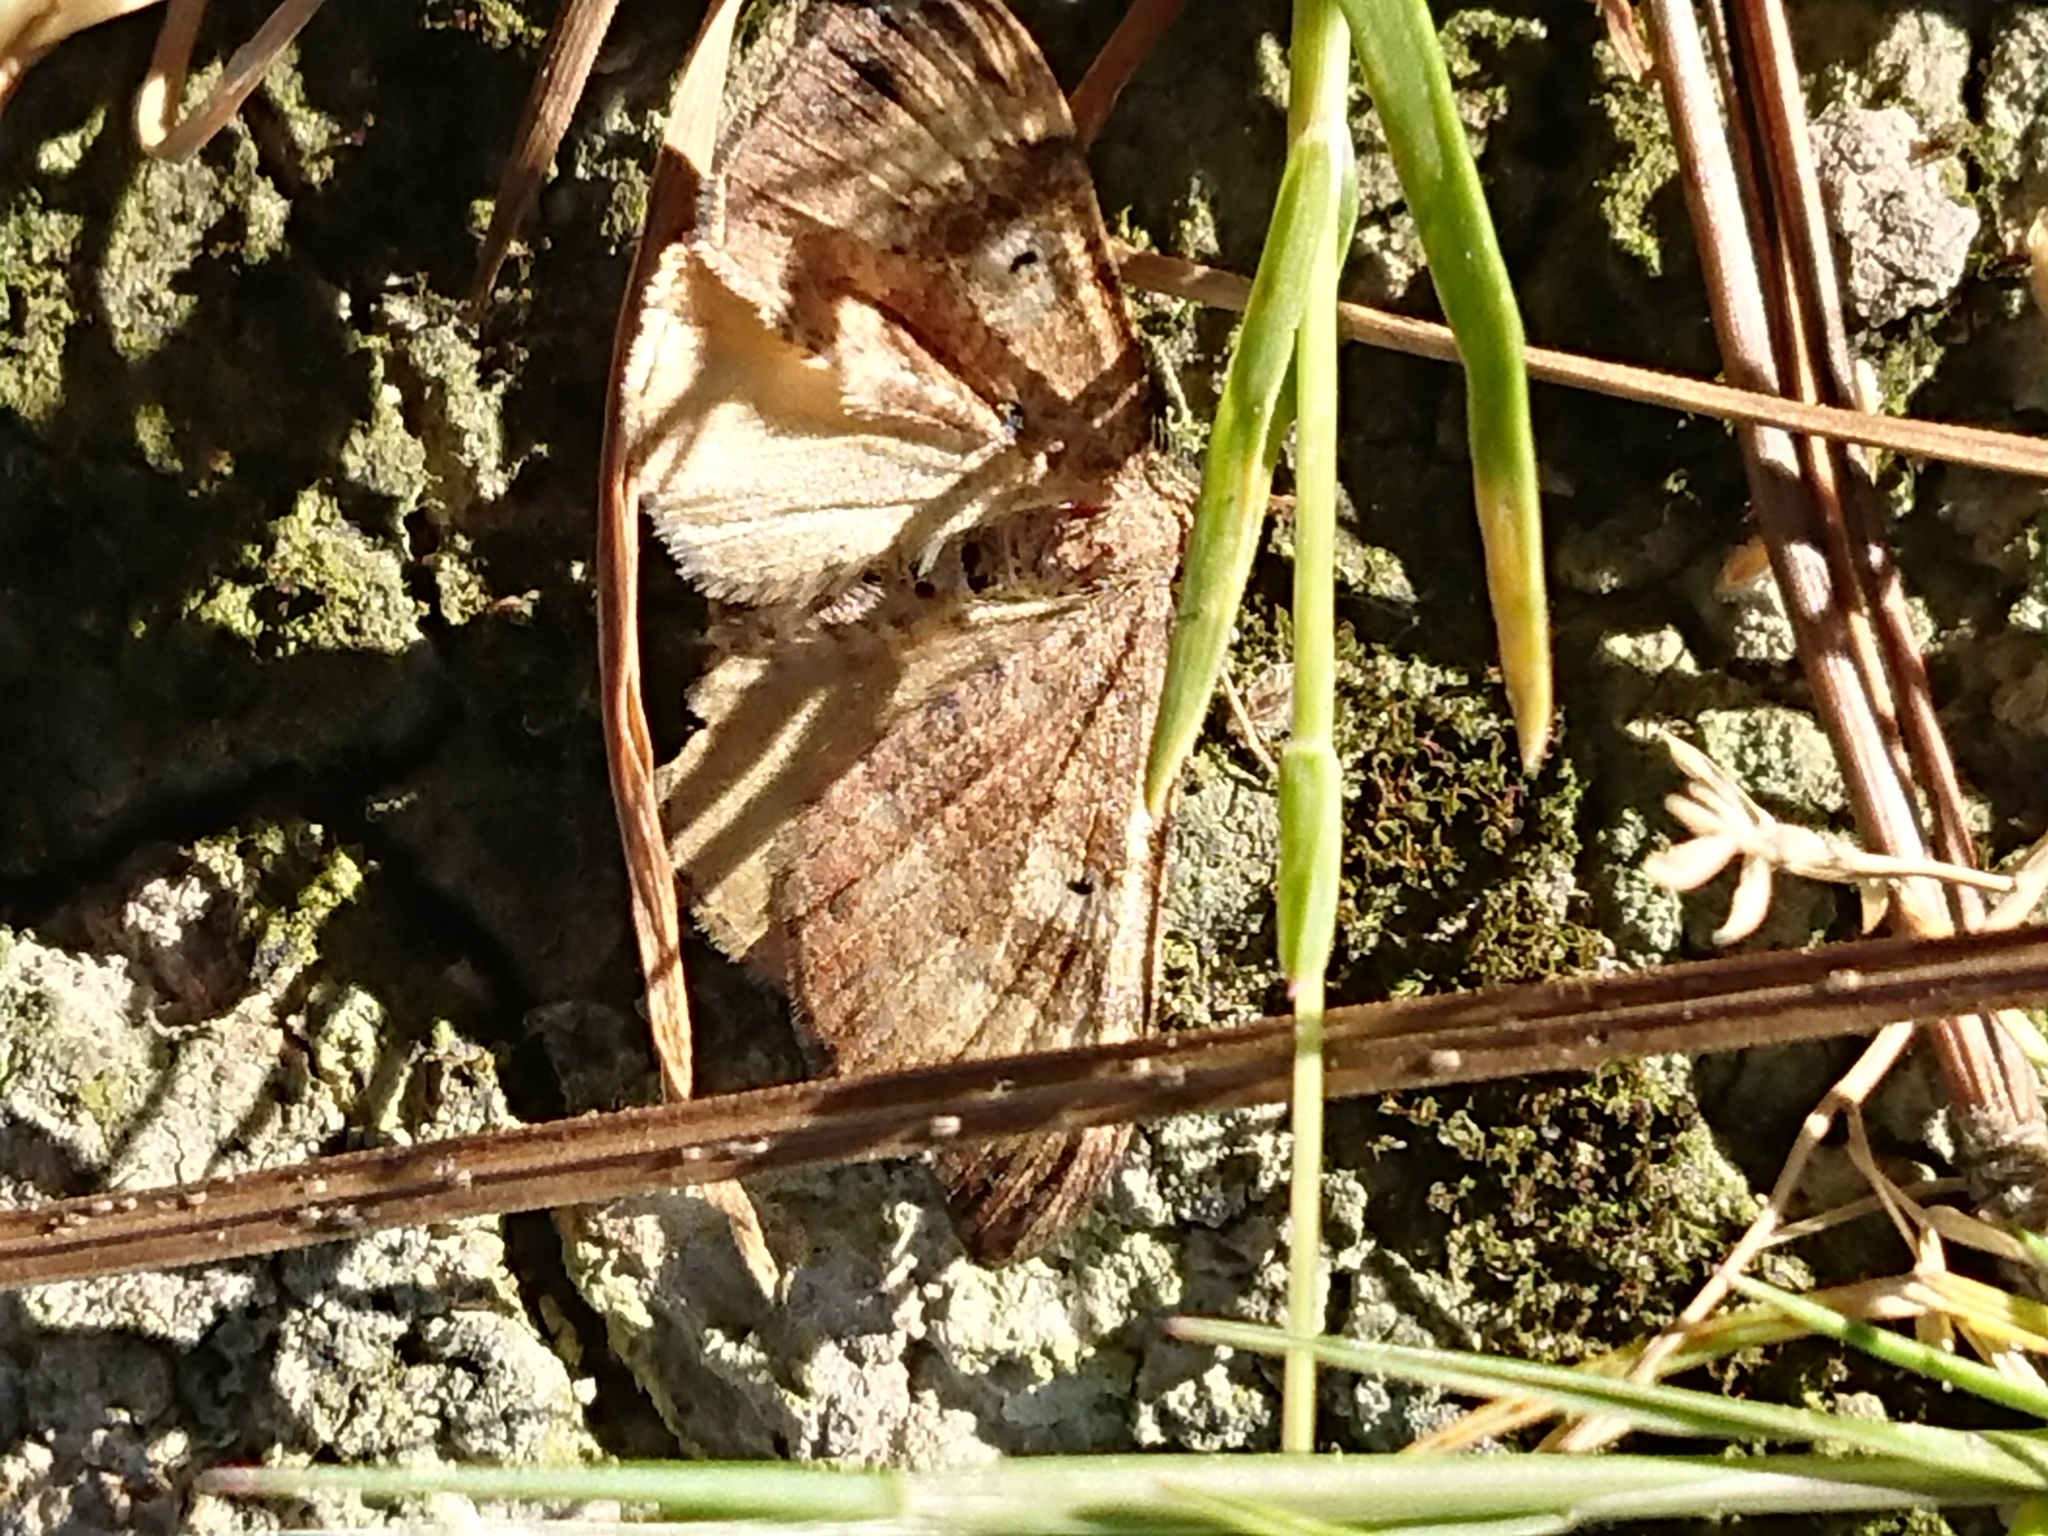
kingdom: Animalia
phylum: Arthropoda
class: Insecta
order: Lepidoptera
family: Geometridae
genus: Homodotis
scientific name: Homodotis megaspilata
